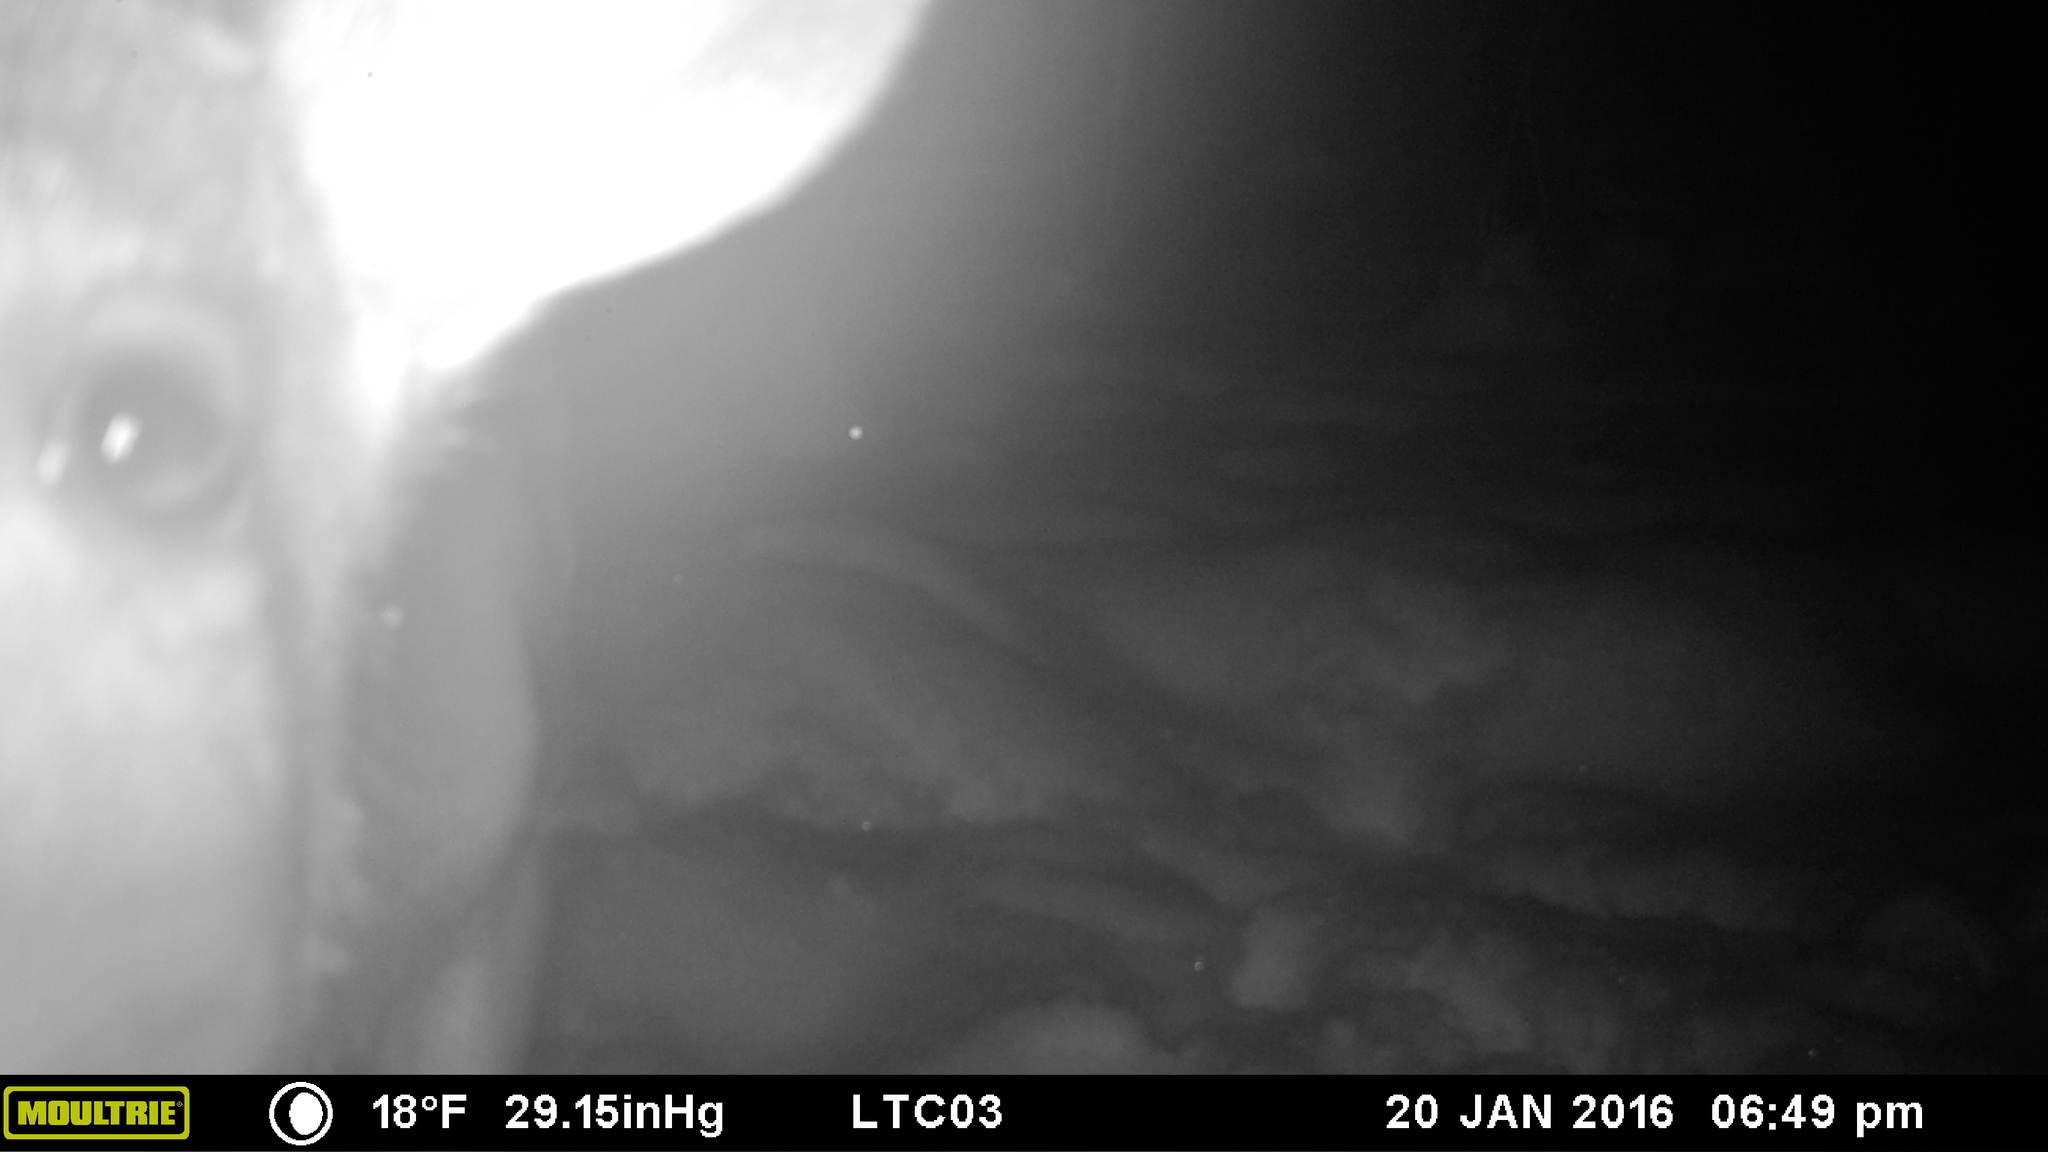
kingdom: Animalia
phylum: Chordata
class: Mammalia
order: Artiodactyla
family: Cervidae
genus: Odocoileus
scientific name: Odocoileus virginianus
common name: White-tailed deer
